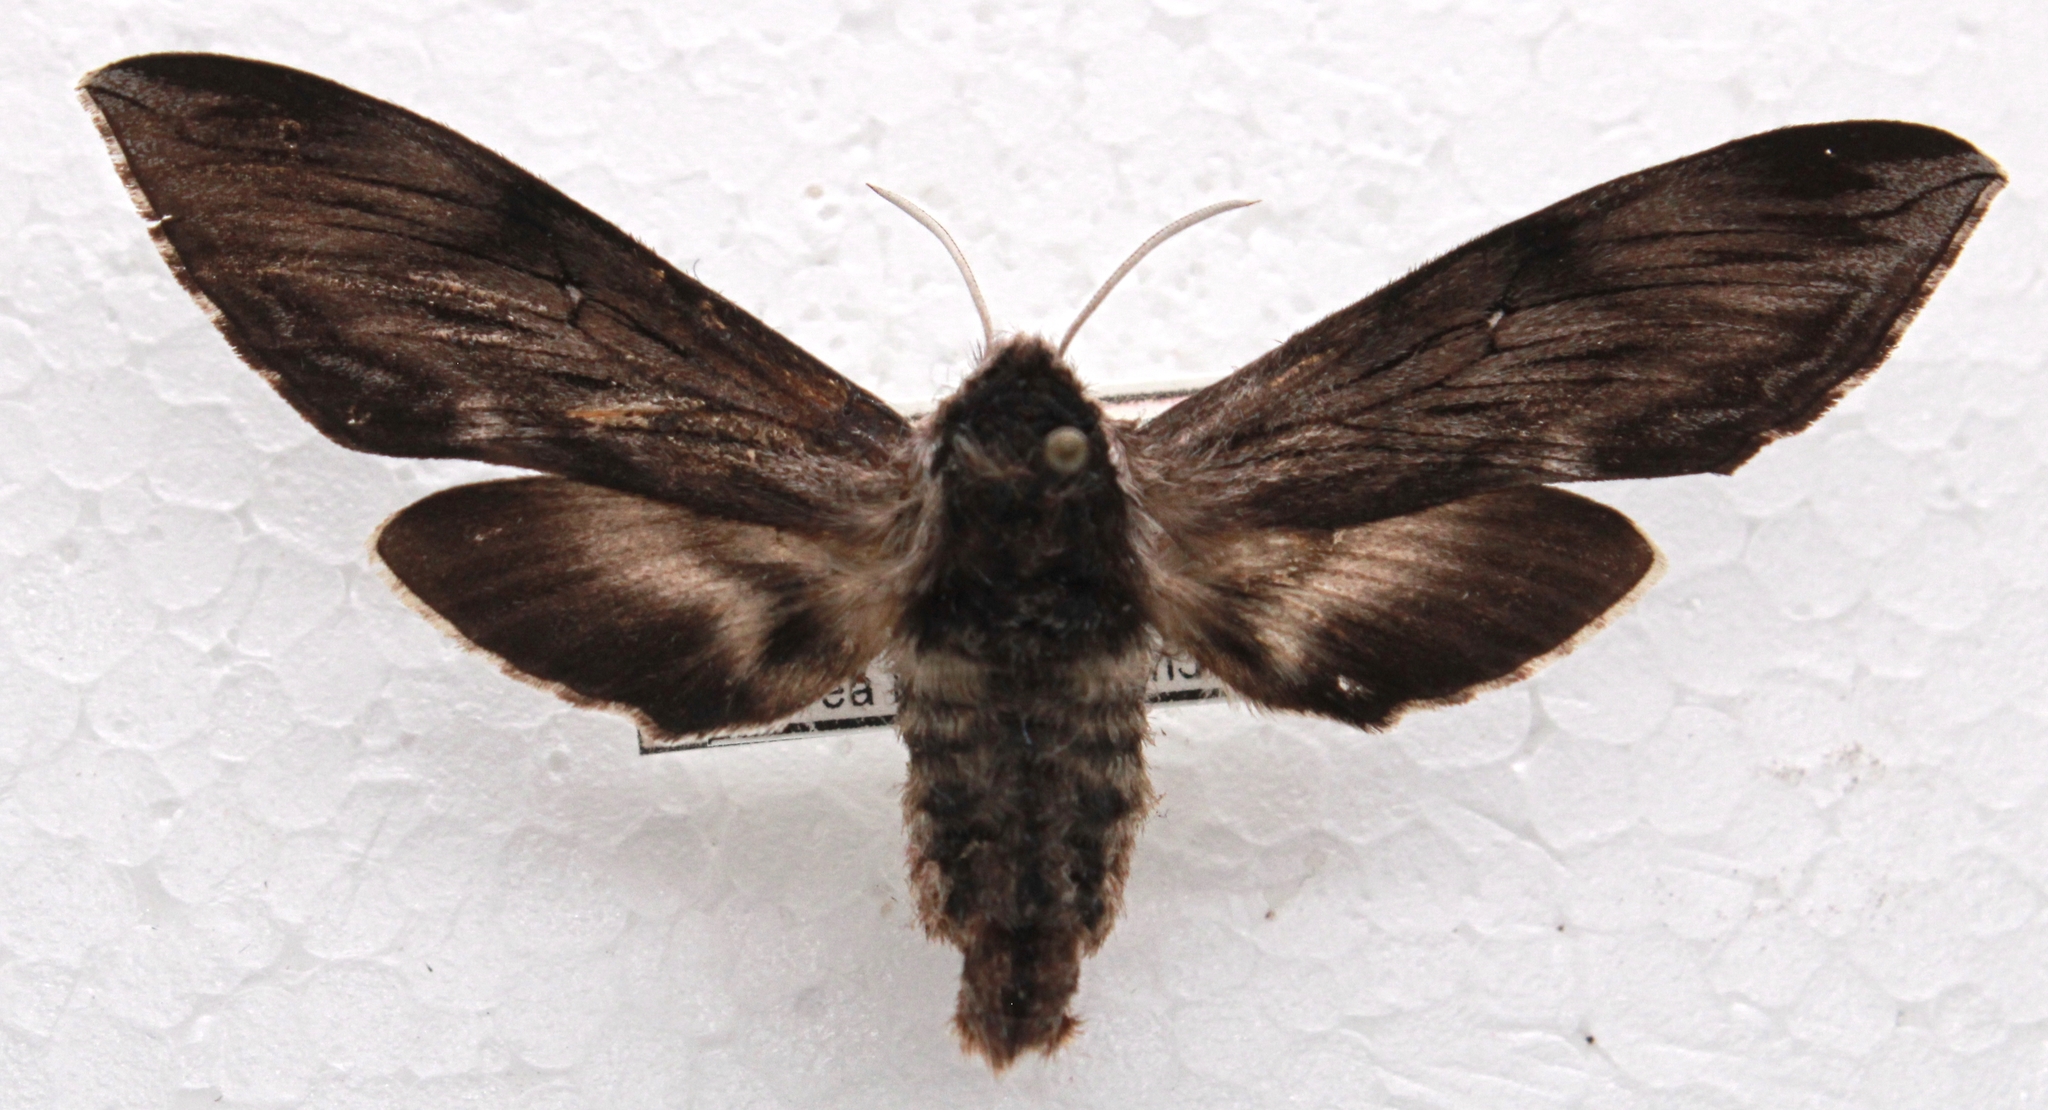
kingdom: Animalia
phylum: Arthropoda
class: Insecta
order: Lepidoptera
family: Sphingidae
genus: Sphinx
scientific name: Sphinx poecila
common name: Northern apple sphinx
